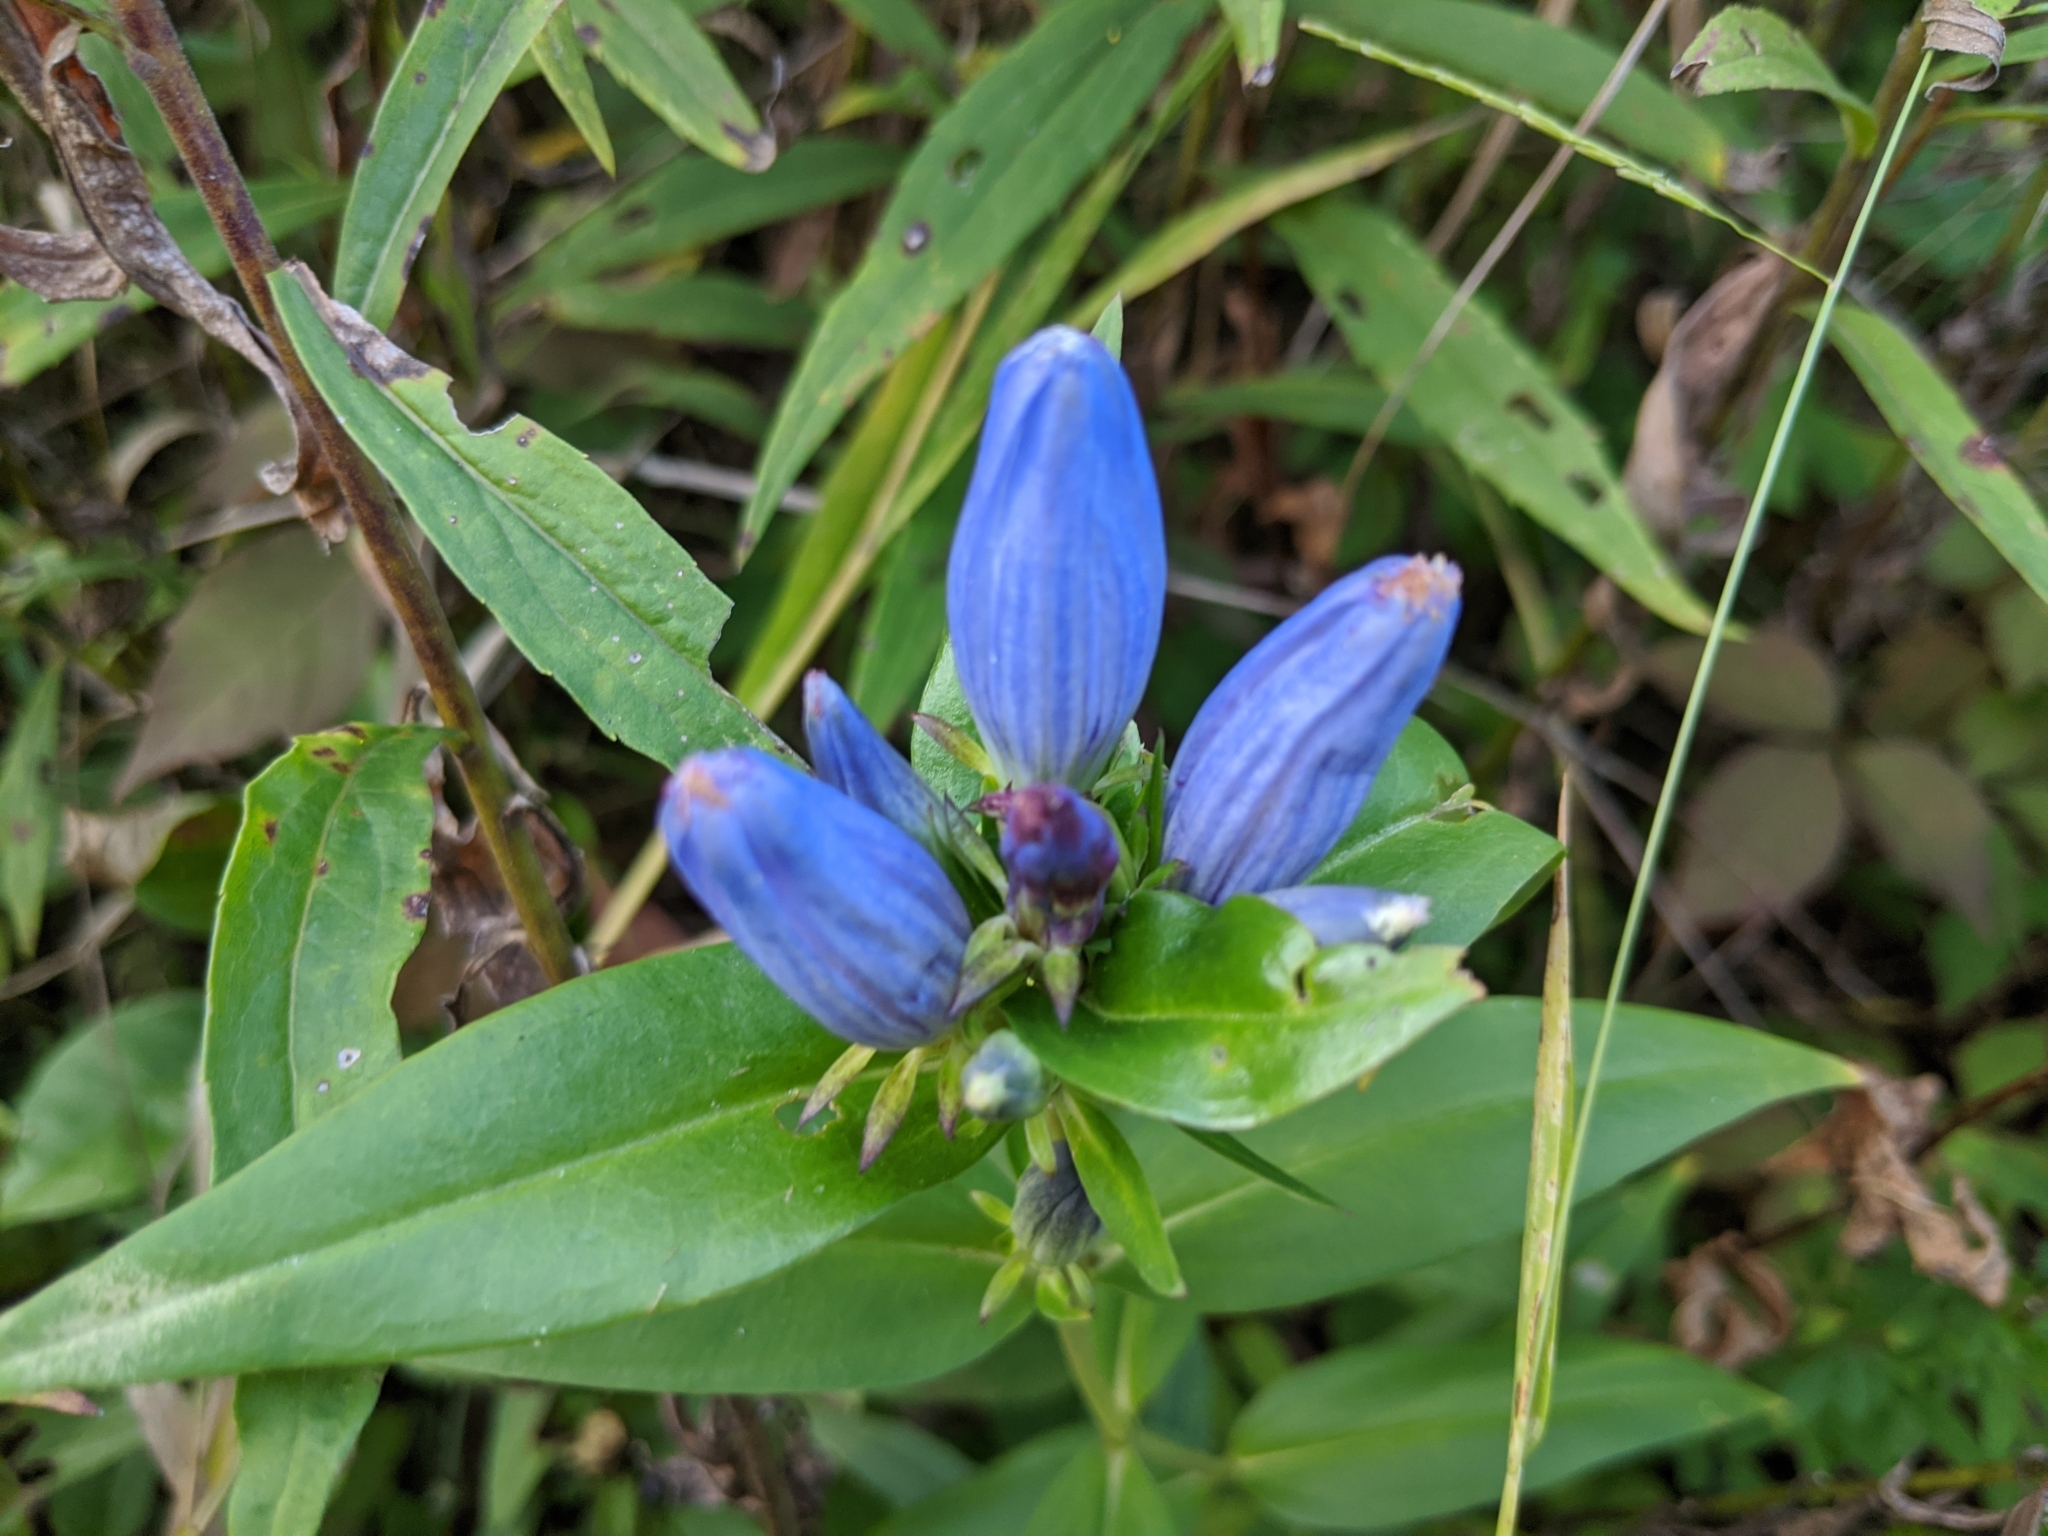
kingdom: Plantae
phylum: Tracheophyta
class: Magnoliopsida
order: Gentianales
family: Gentianaceae
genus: Gentiana
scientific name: Gentiana andrewsii
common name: Bottle gentian
